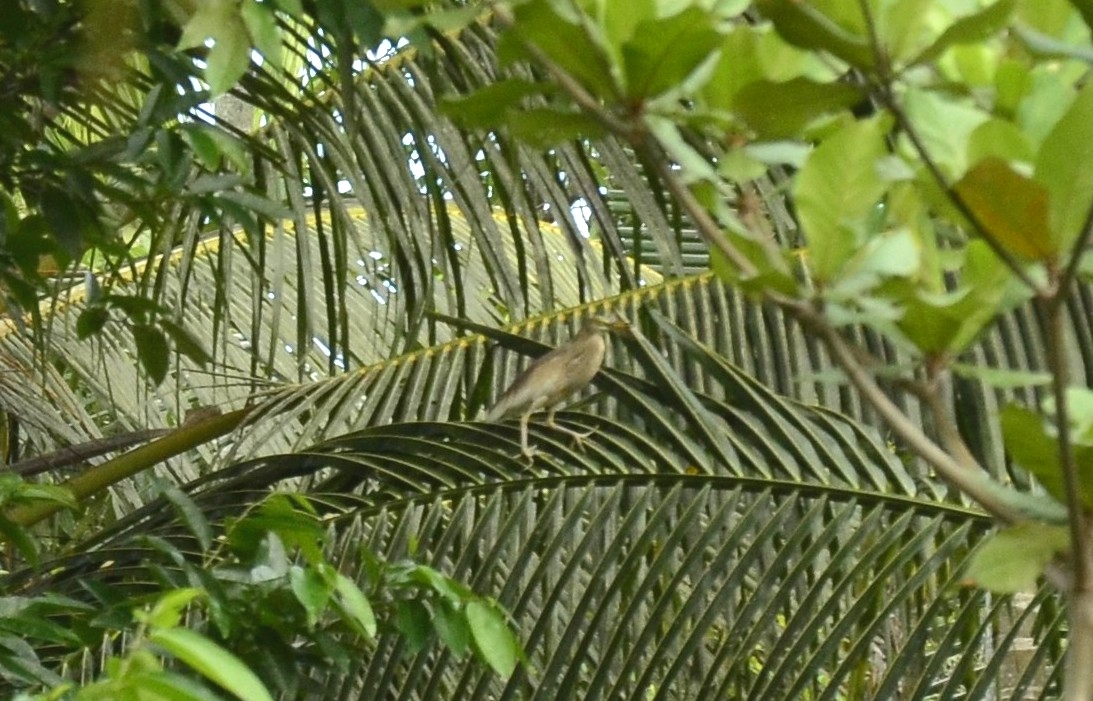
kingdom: Animalia
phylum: Chordata
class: Aves
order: Pelecaniformes
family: Ardeidae
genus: Ardeola
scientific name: Ardeola grayii
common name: Indian pond heron
